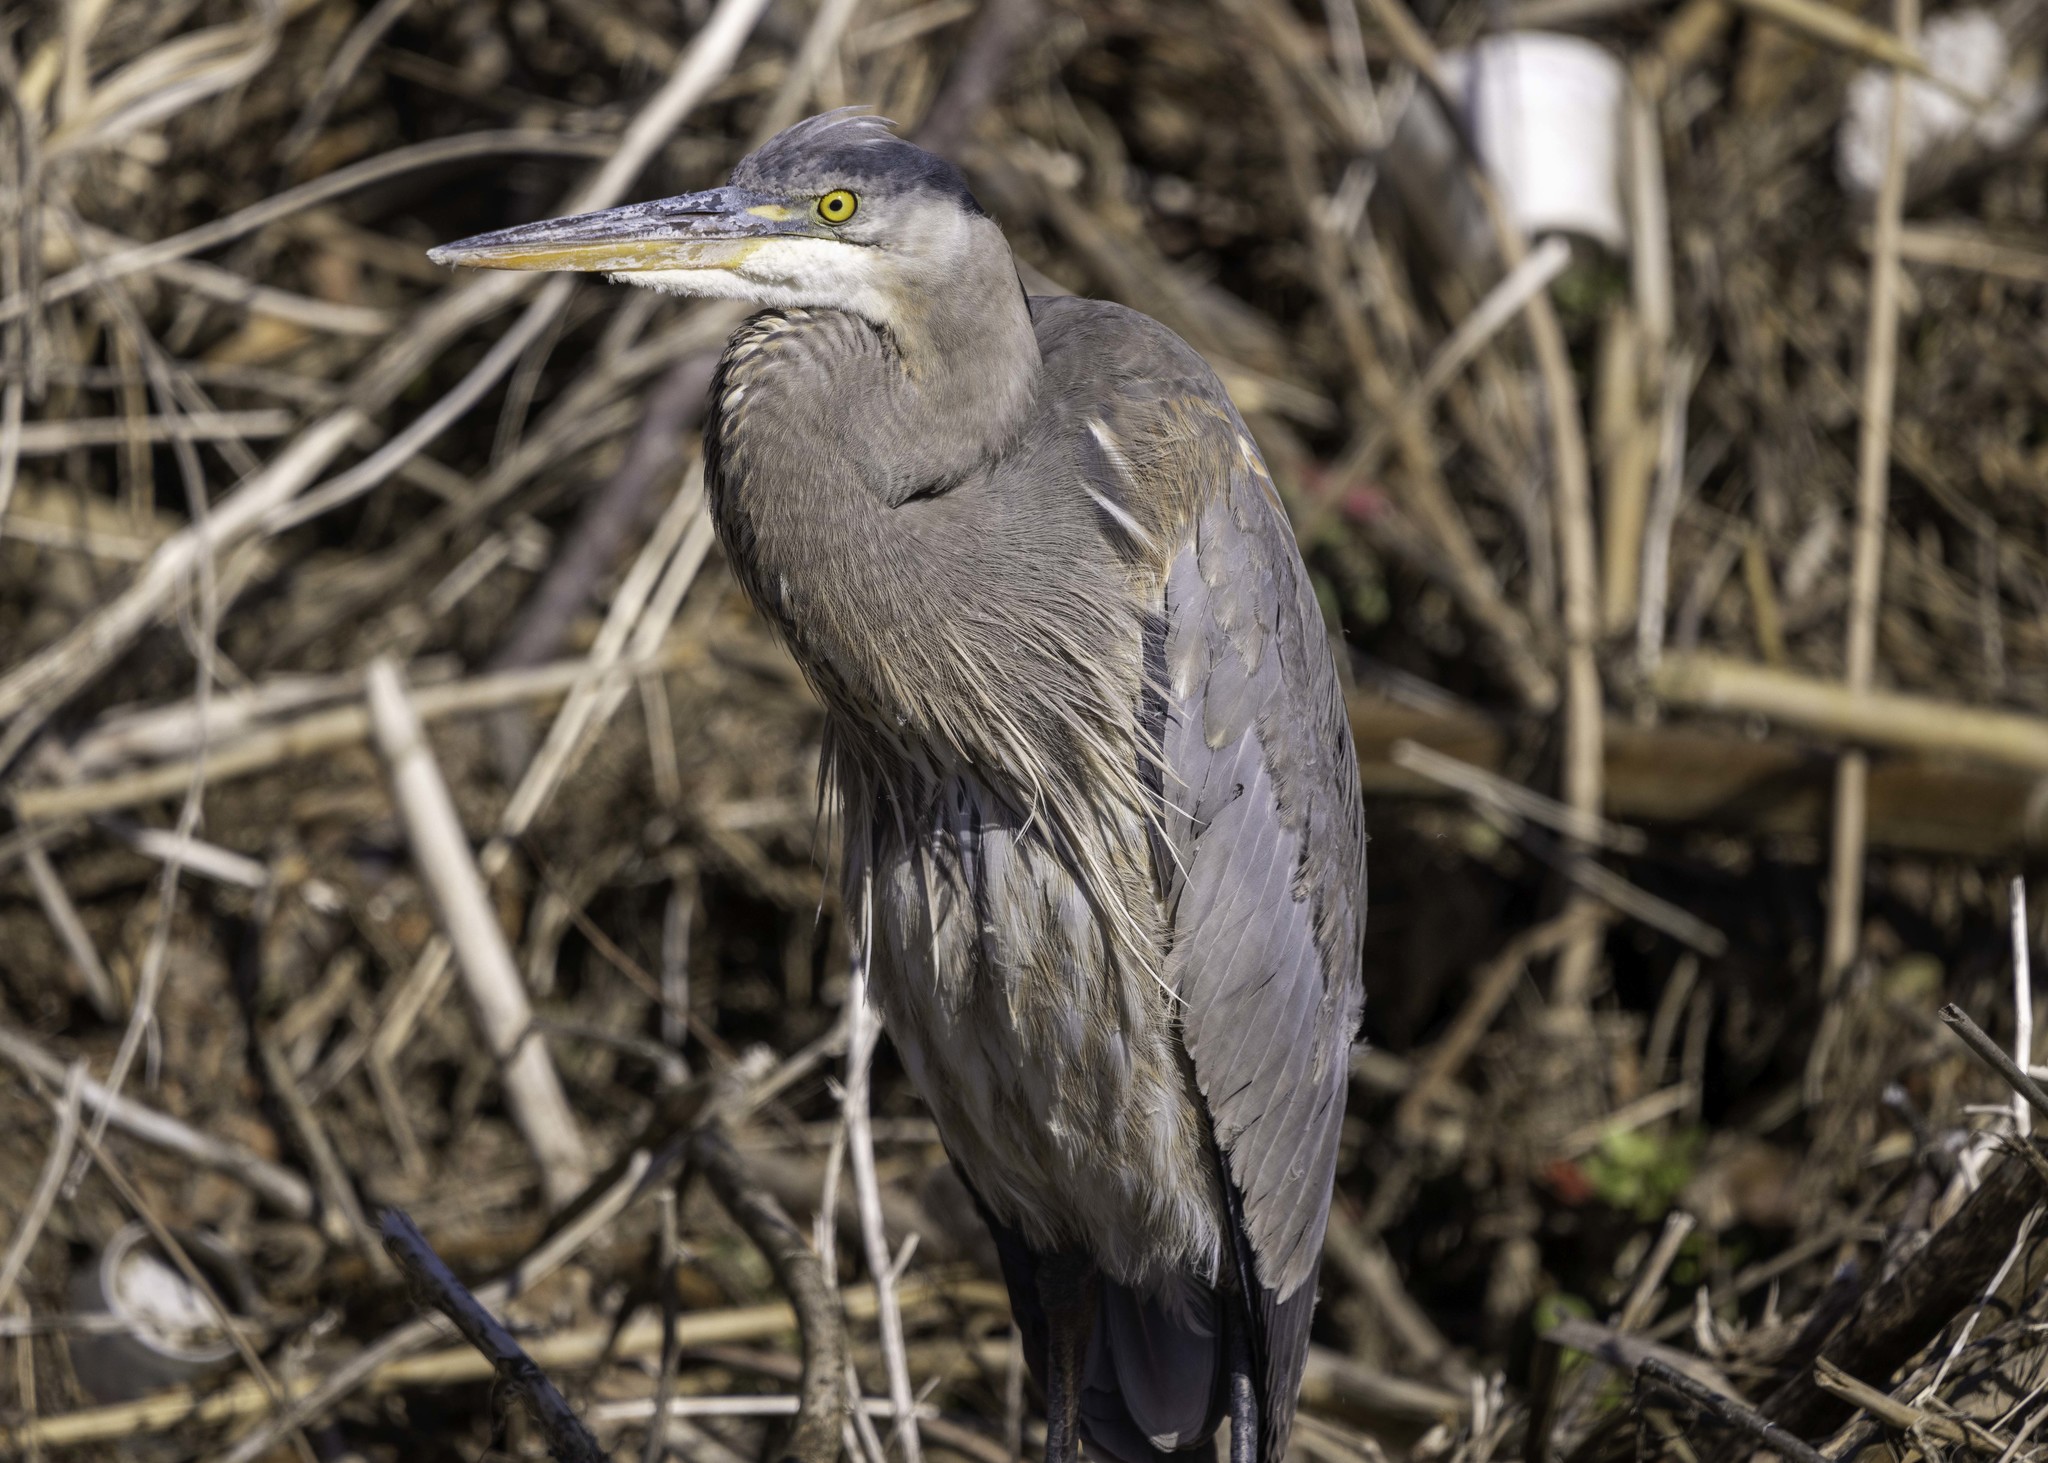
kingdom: Animalia
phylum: Chordata
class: Aves
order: Pelecaniformes
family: Ardeidae
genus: Ardea
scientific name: Ardea herodias
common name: Great blue heron
